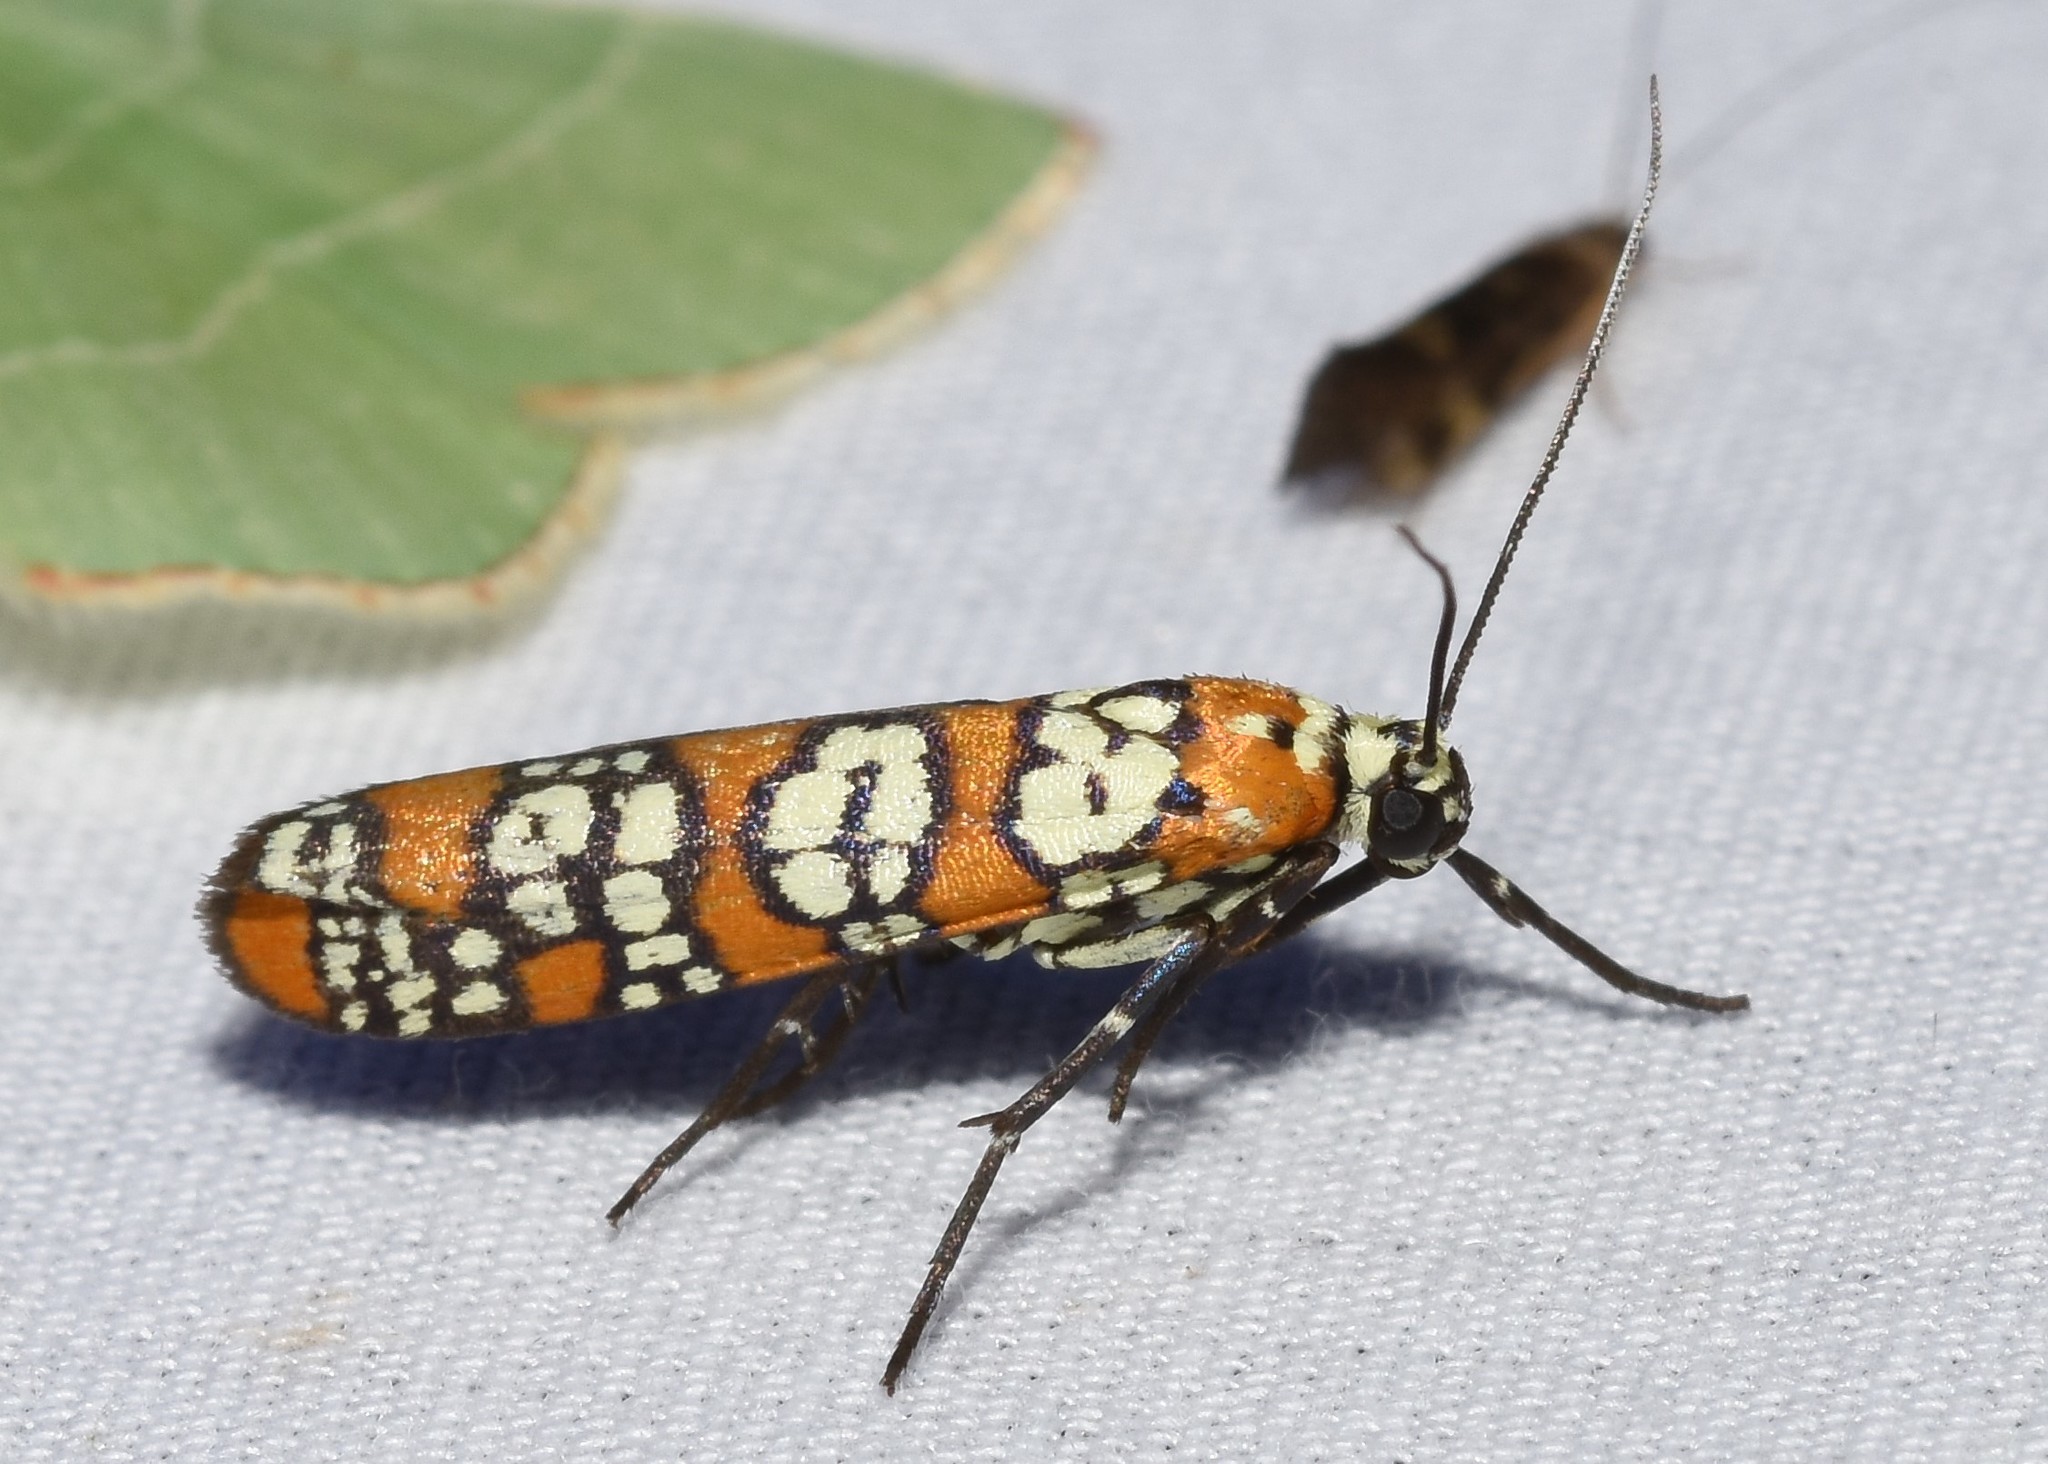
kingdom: Animalia
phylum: Arthropoda
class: Insecta
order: Lepidoptera
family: Attevidae
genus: Atteva
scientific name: Atteva punctella
